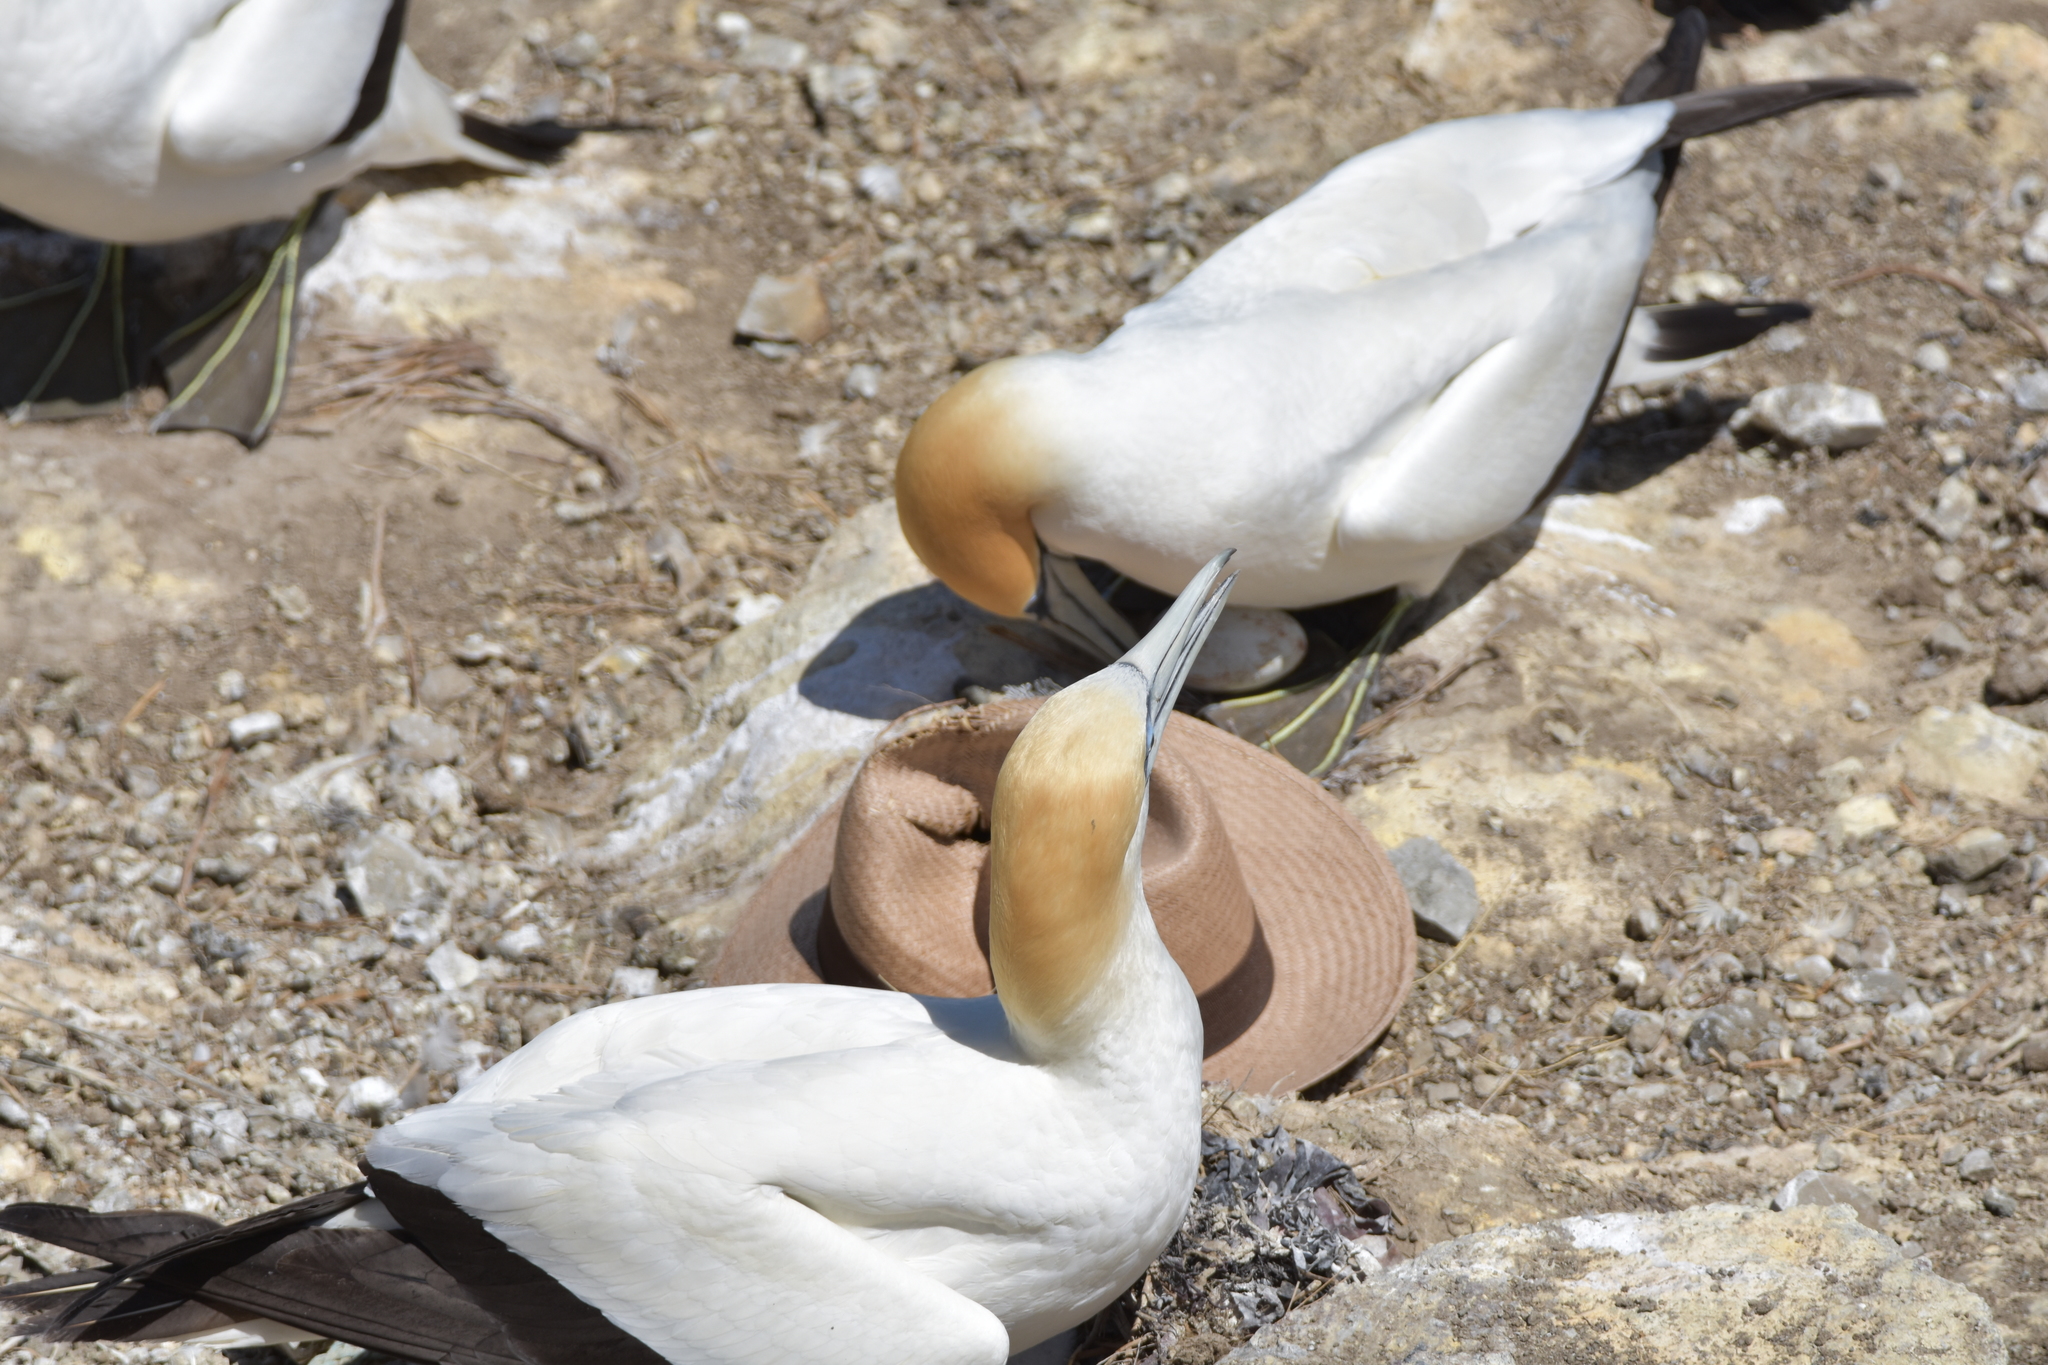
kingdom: Animalia
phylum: Chordata
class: Aves
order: Suliformes
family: Sulidae
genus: Morus
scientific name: Morus serrator
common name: Australasian gannet
